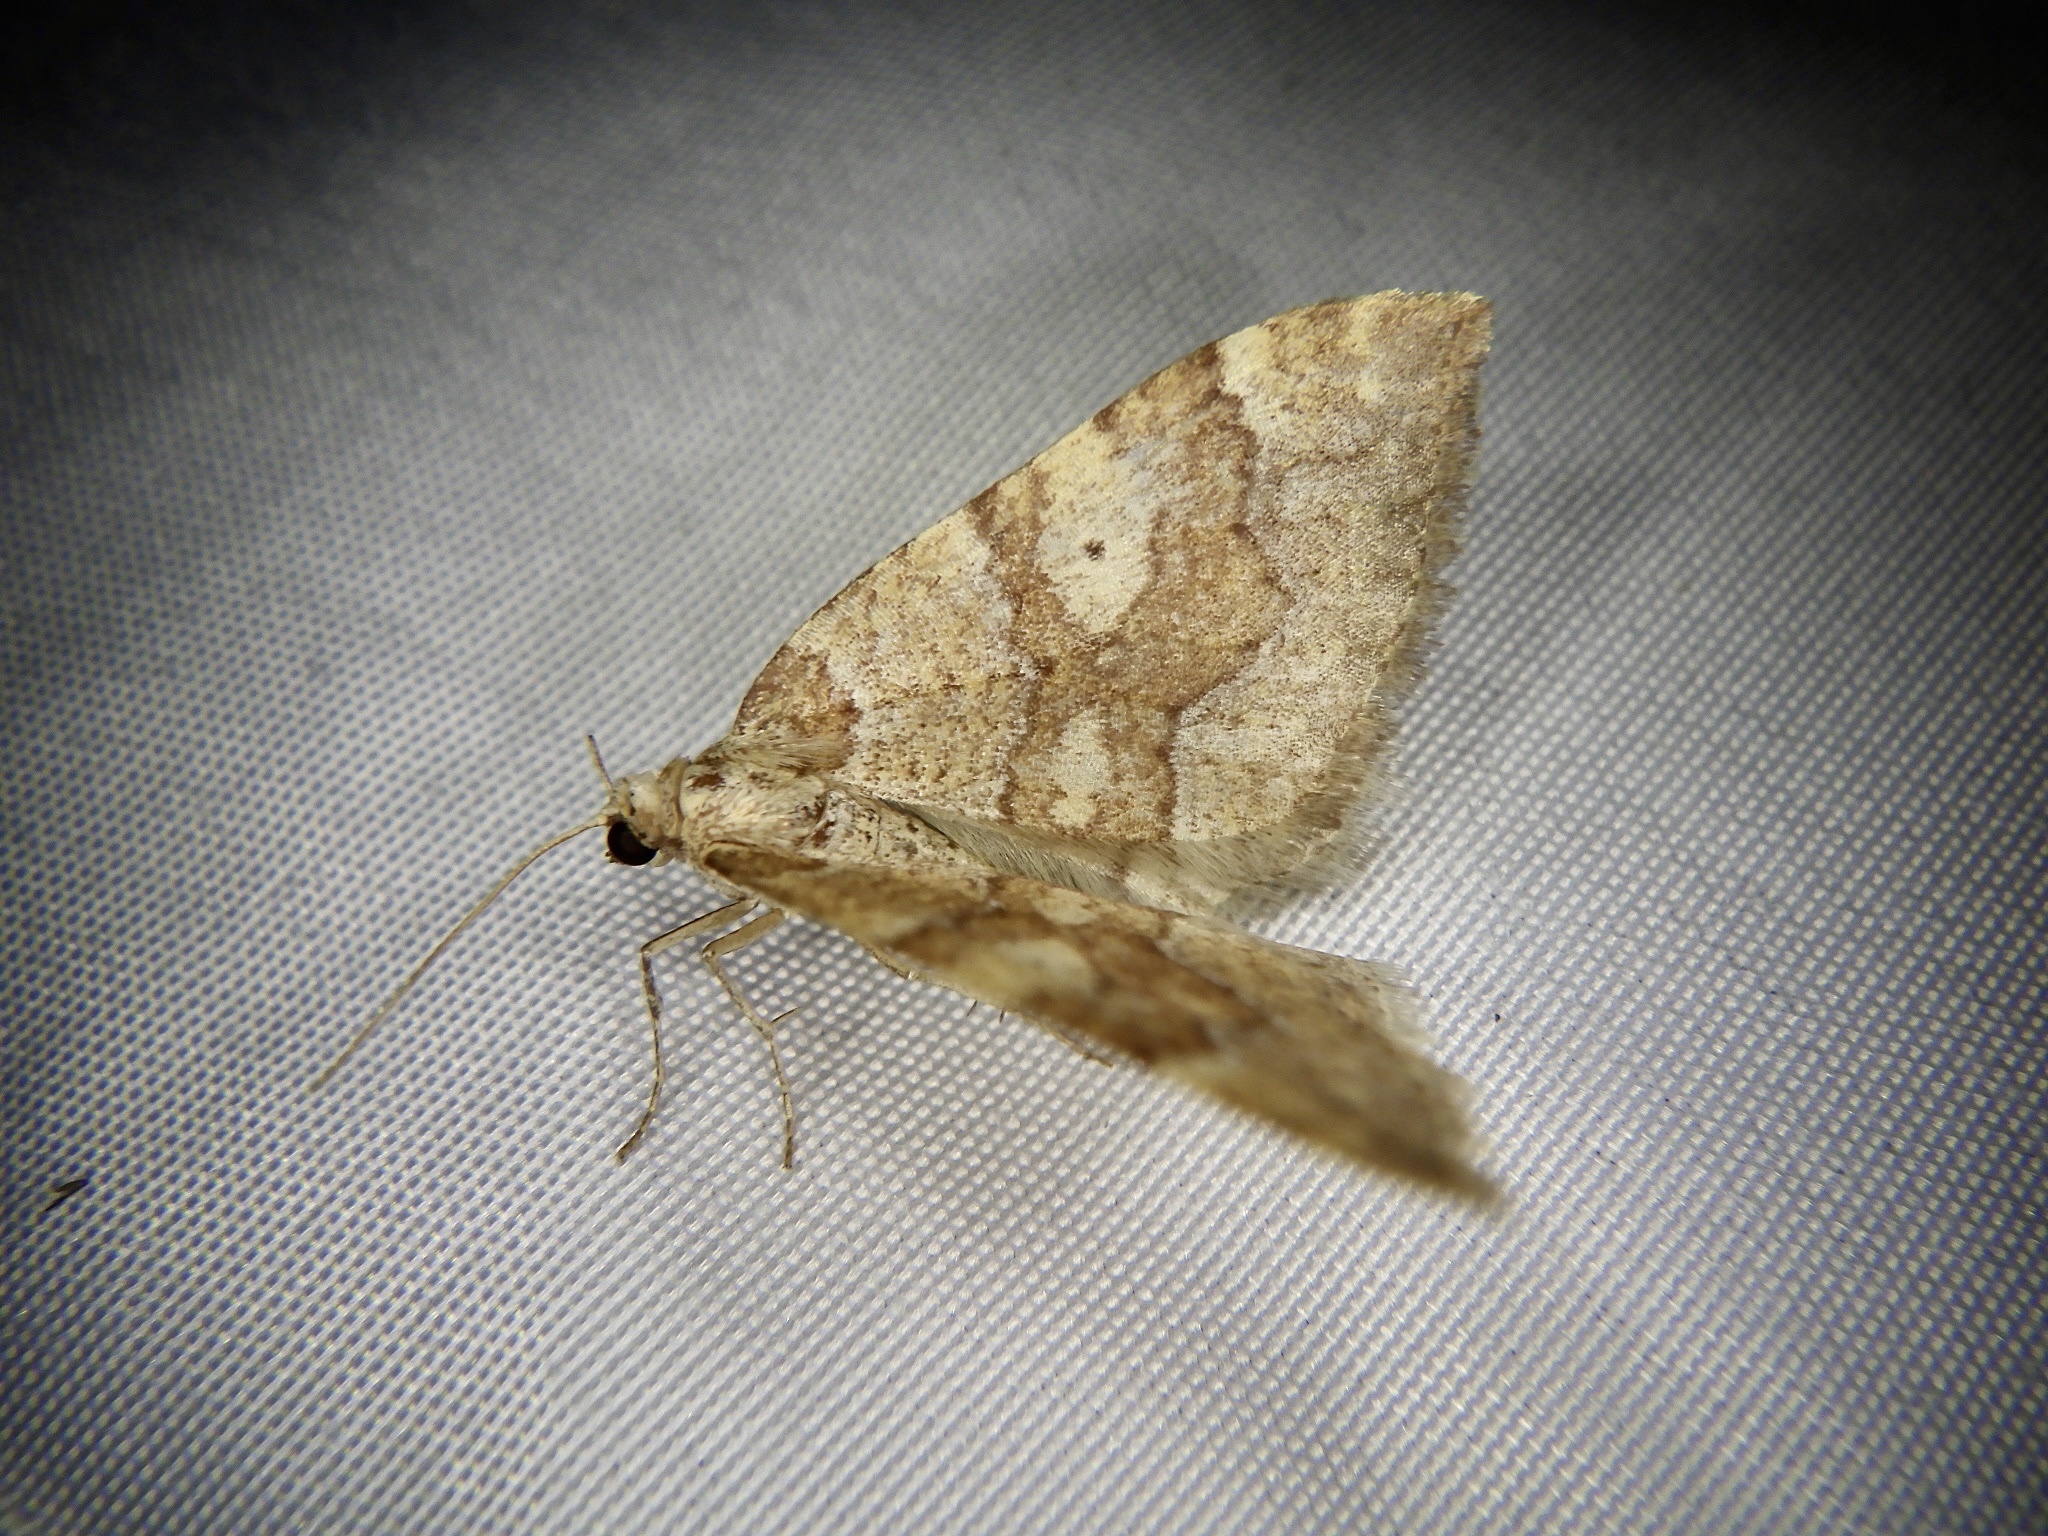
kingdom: Animalia
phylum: Arthropoda
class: Insecta
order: Lepidoptera
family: Geometridae
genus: Idiotephria
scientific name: Idiotephria evanescens
